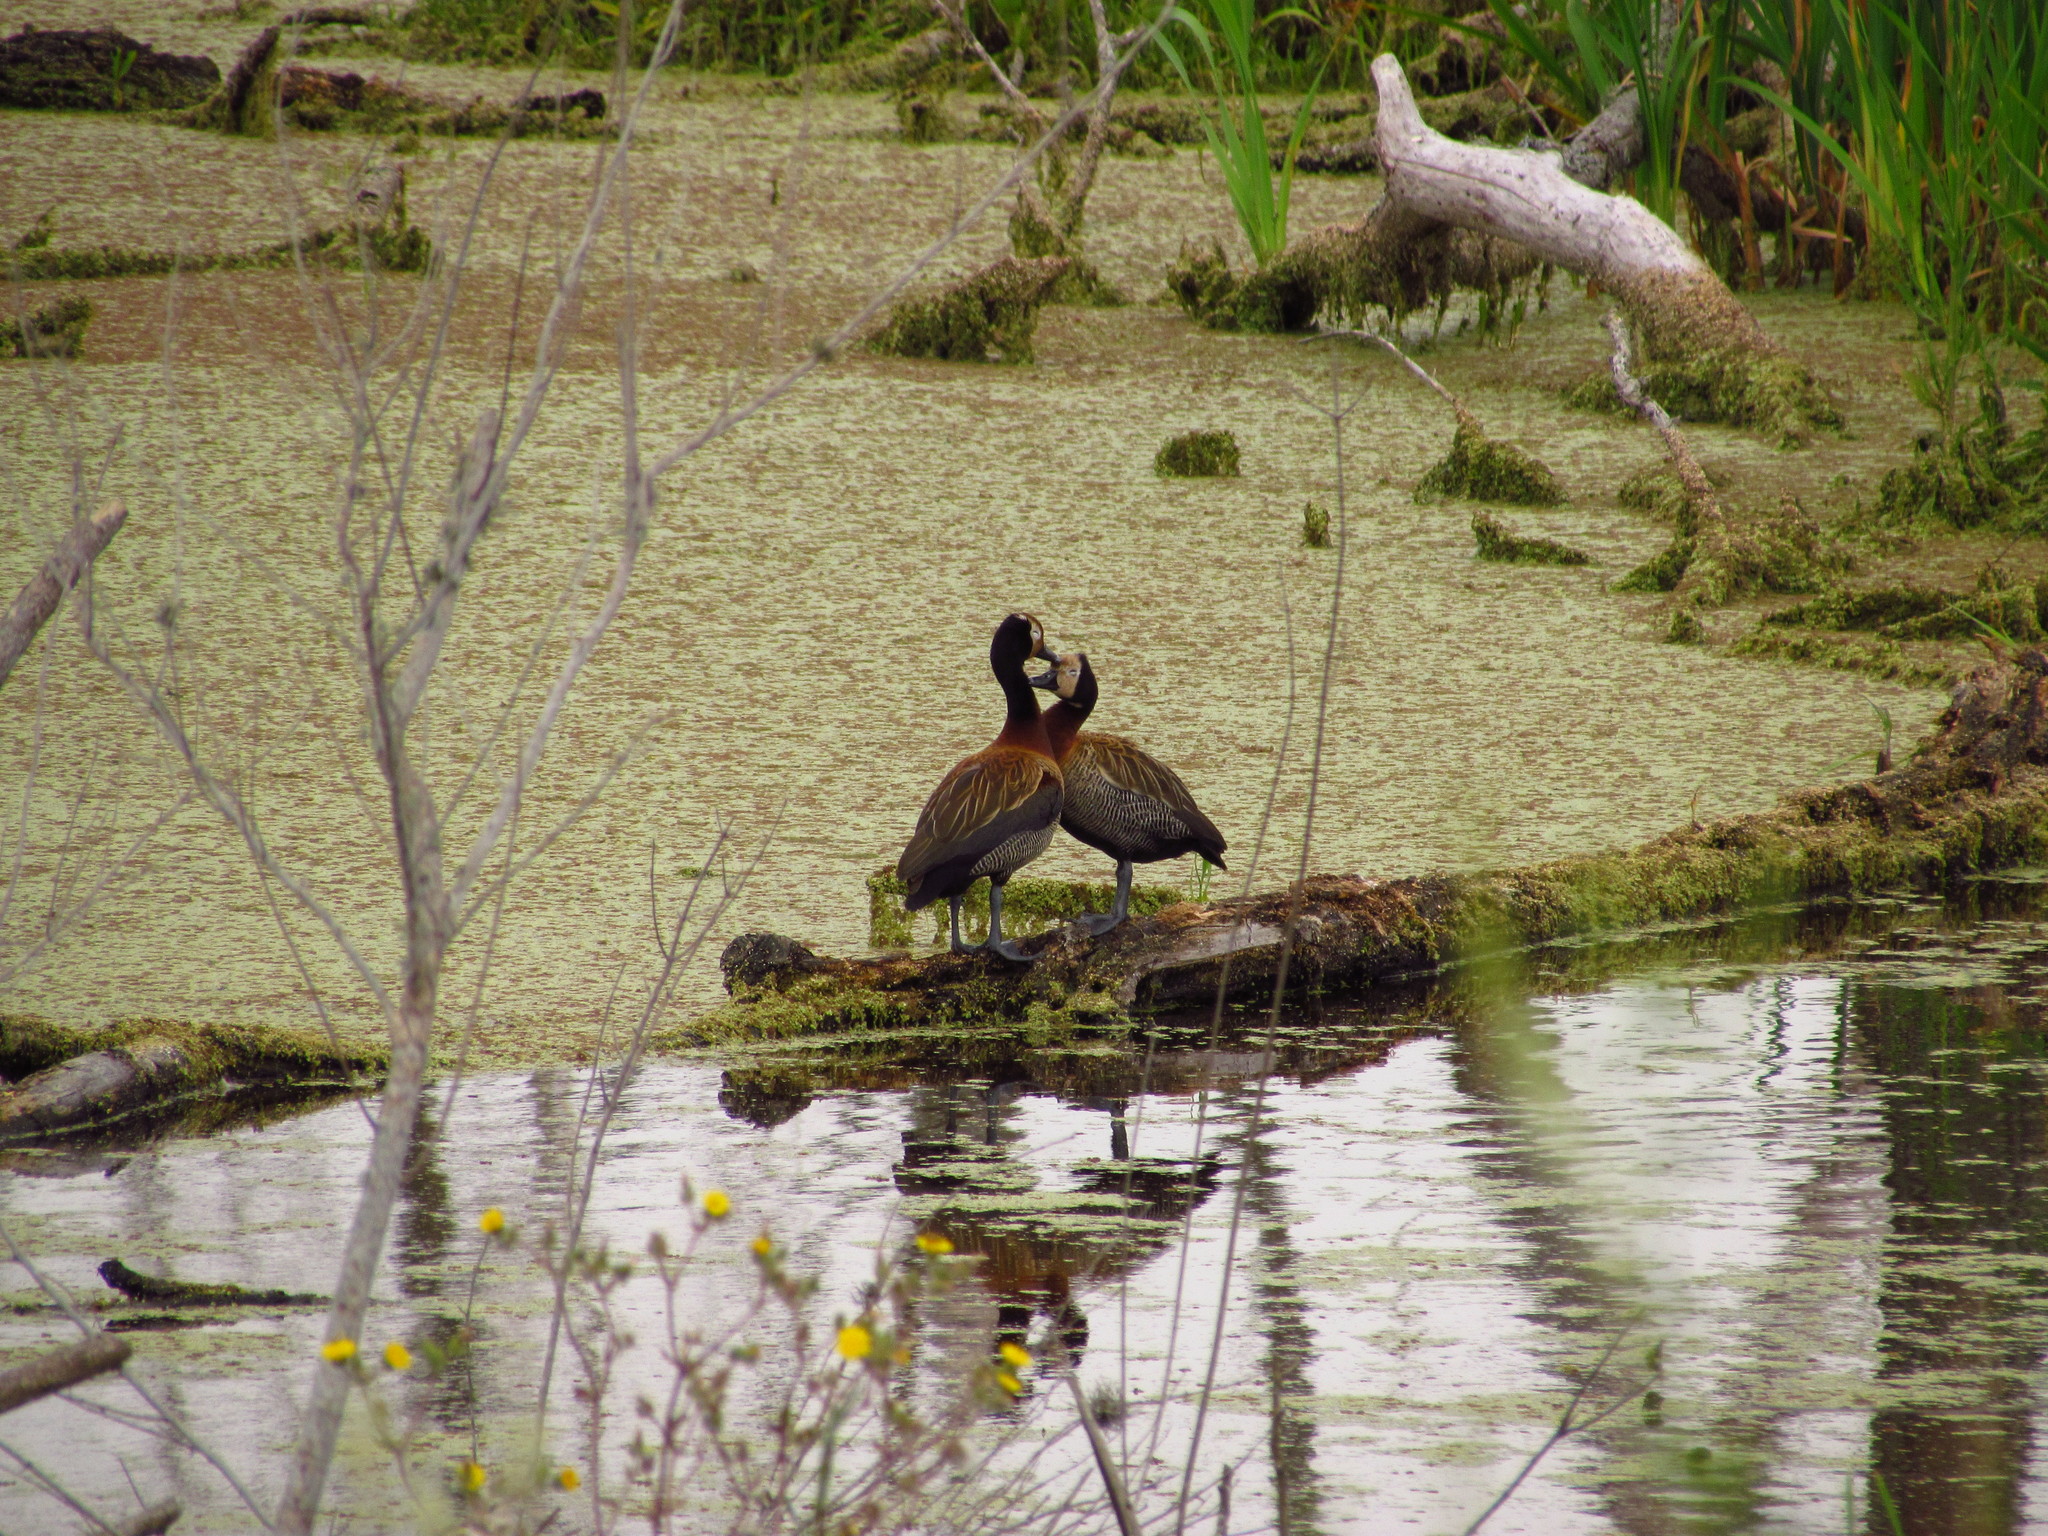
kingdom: Animalia
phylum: Chordata
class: Aves
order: Anseriformes
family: Anatidae
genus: Dendrocygna
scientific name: Dendrocygna viduata
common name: White-faced whistling duck
